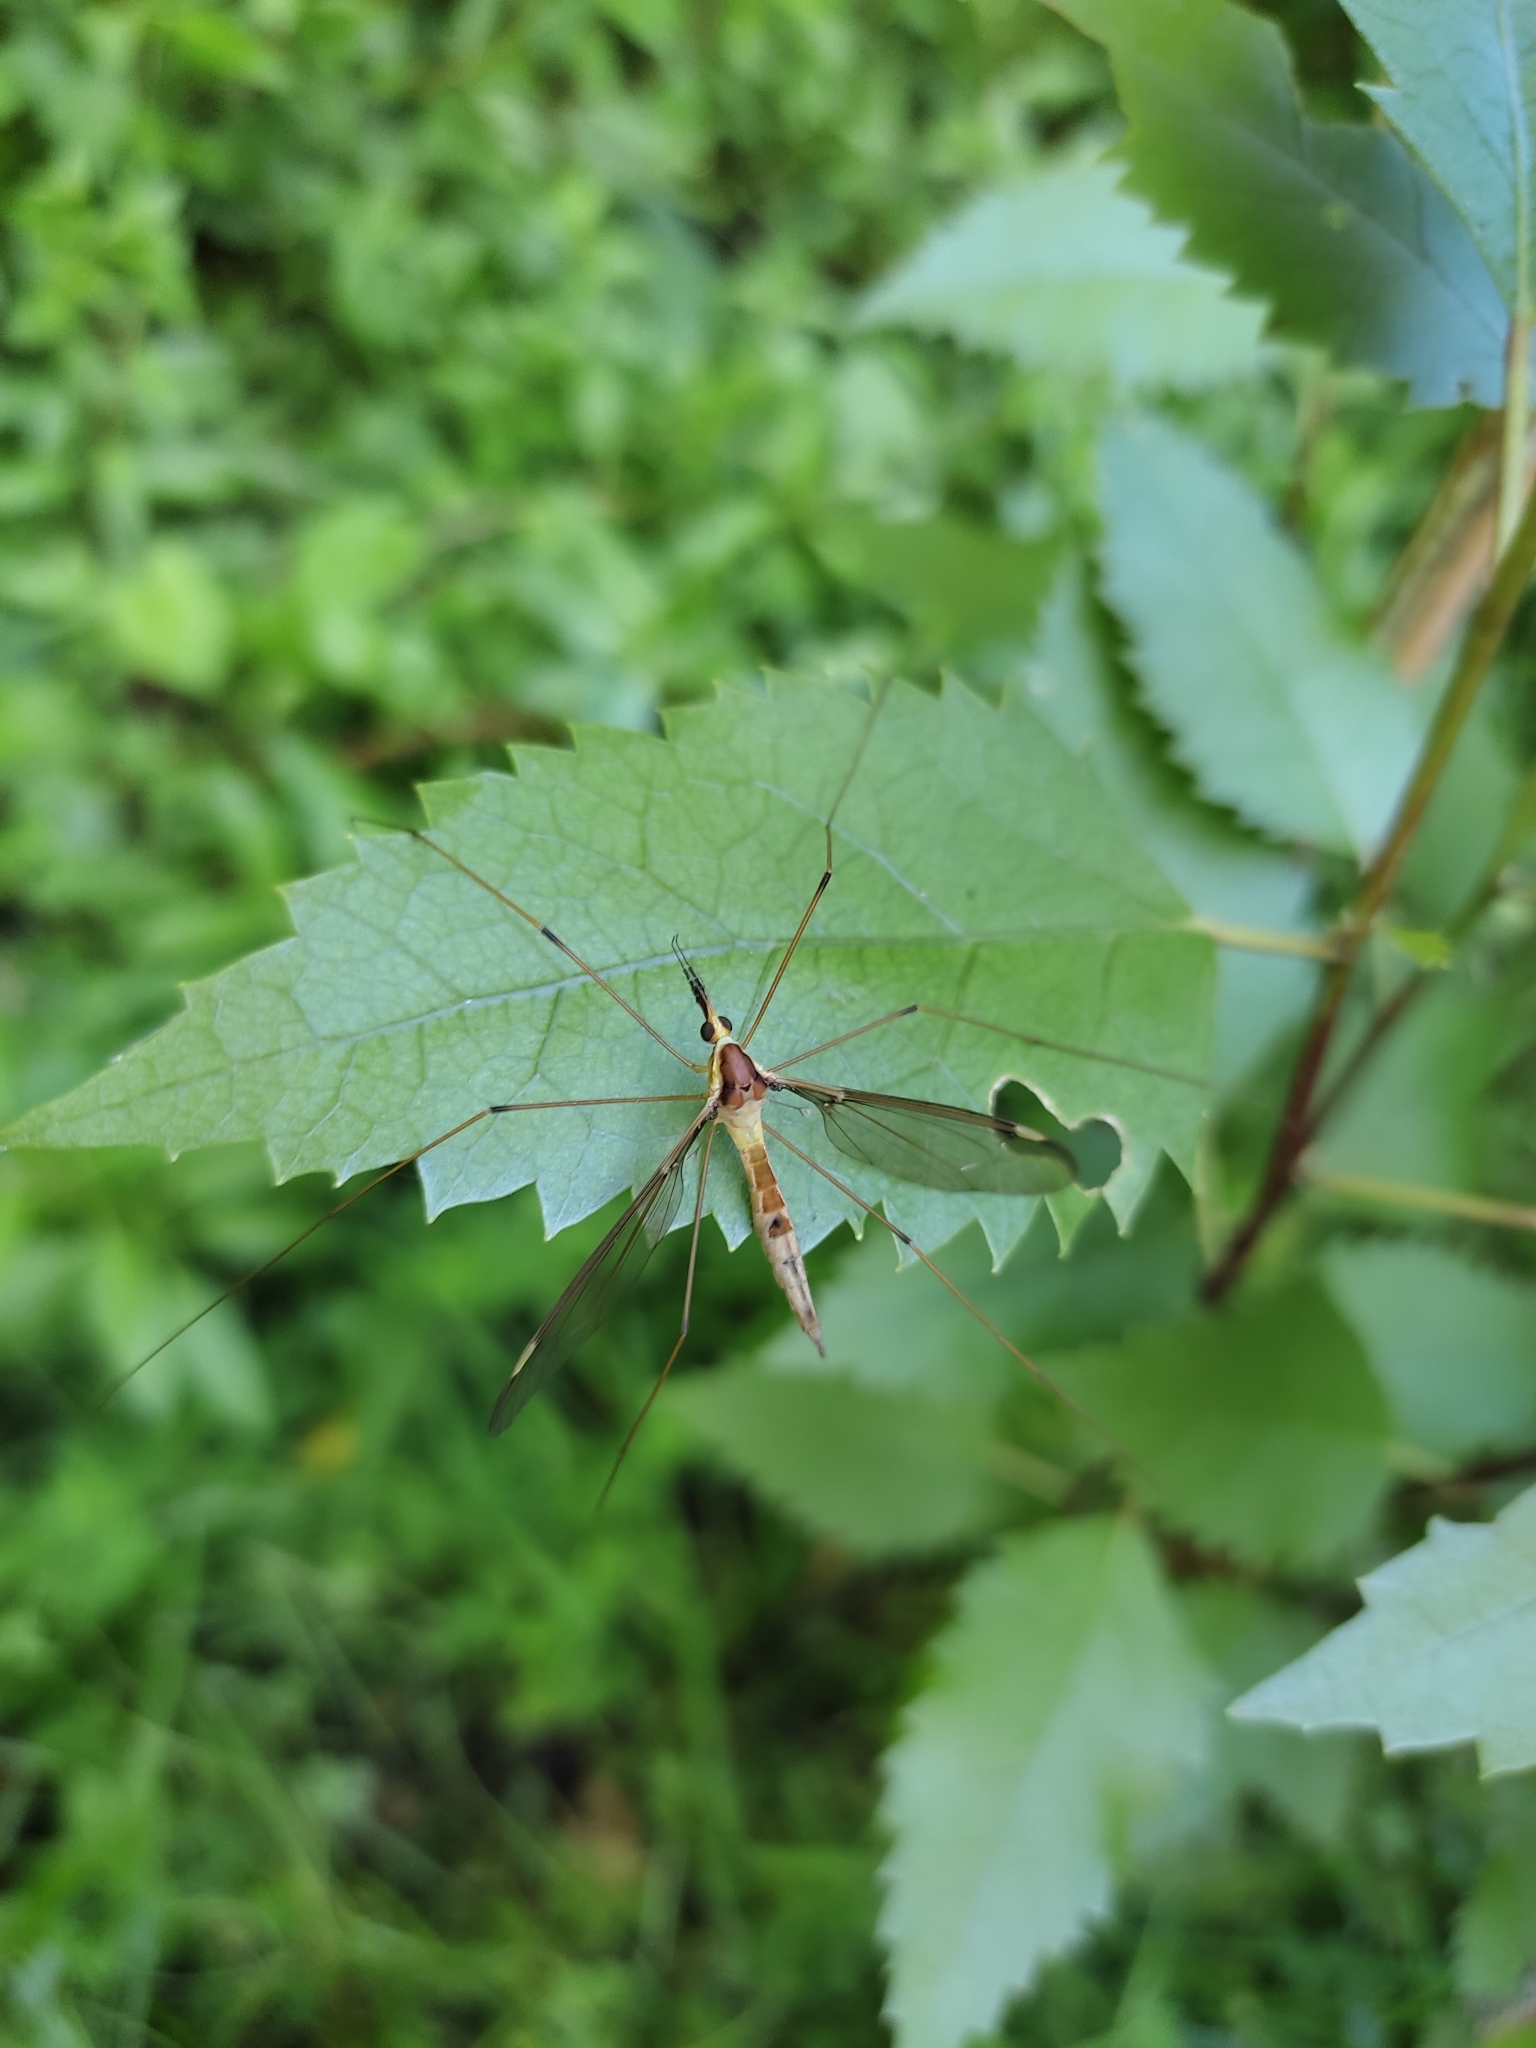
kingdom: Animalia
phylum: Arthropoda
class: Insecta
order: Diptera
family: Tipulidae
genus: Leptotarsus
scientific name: Leptotarsus albistigma
